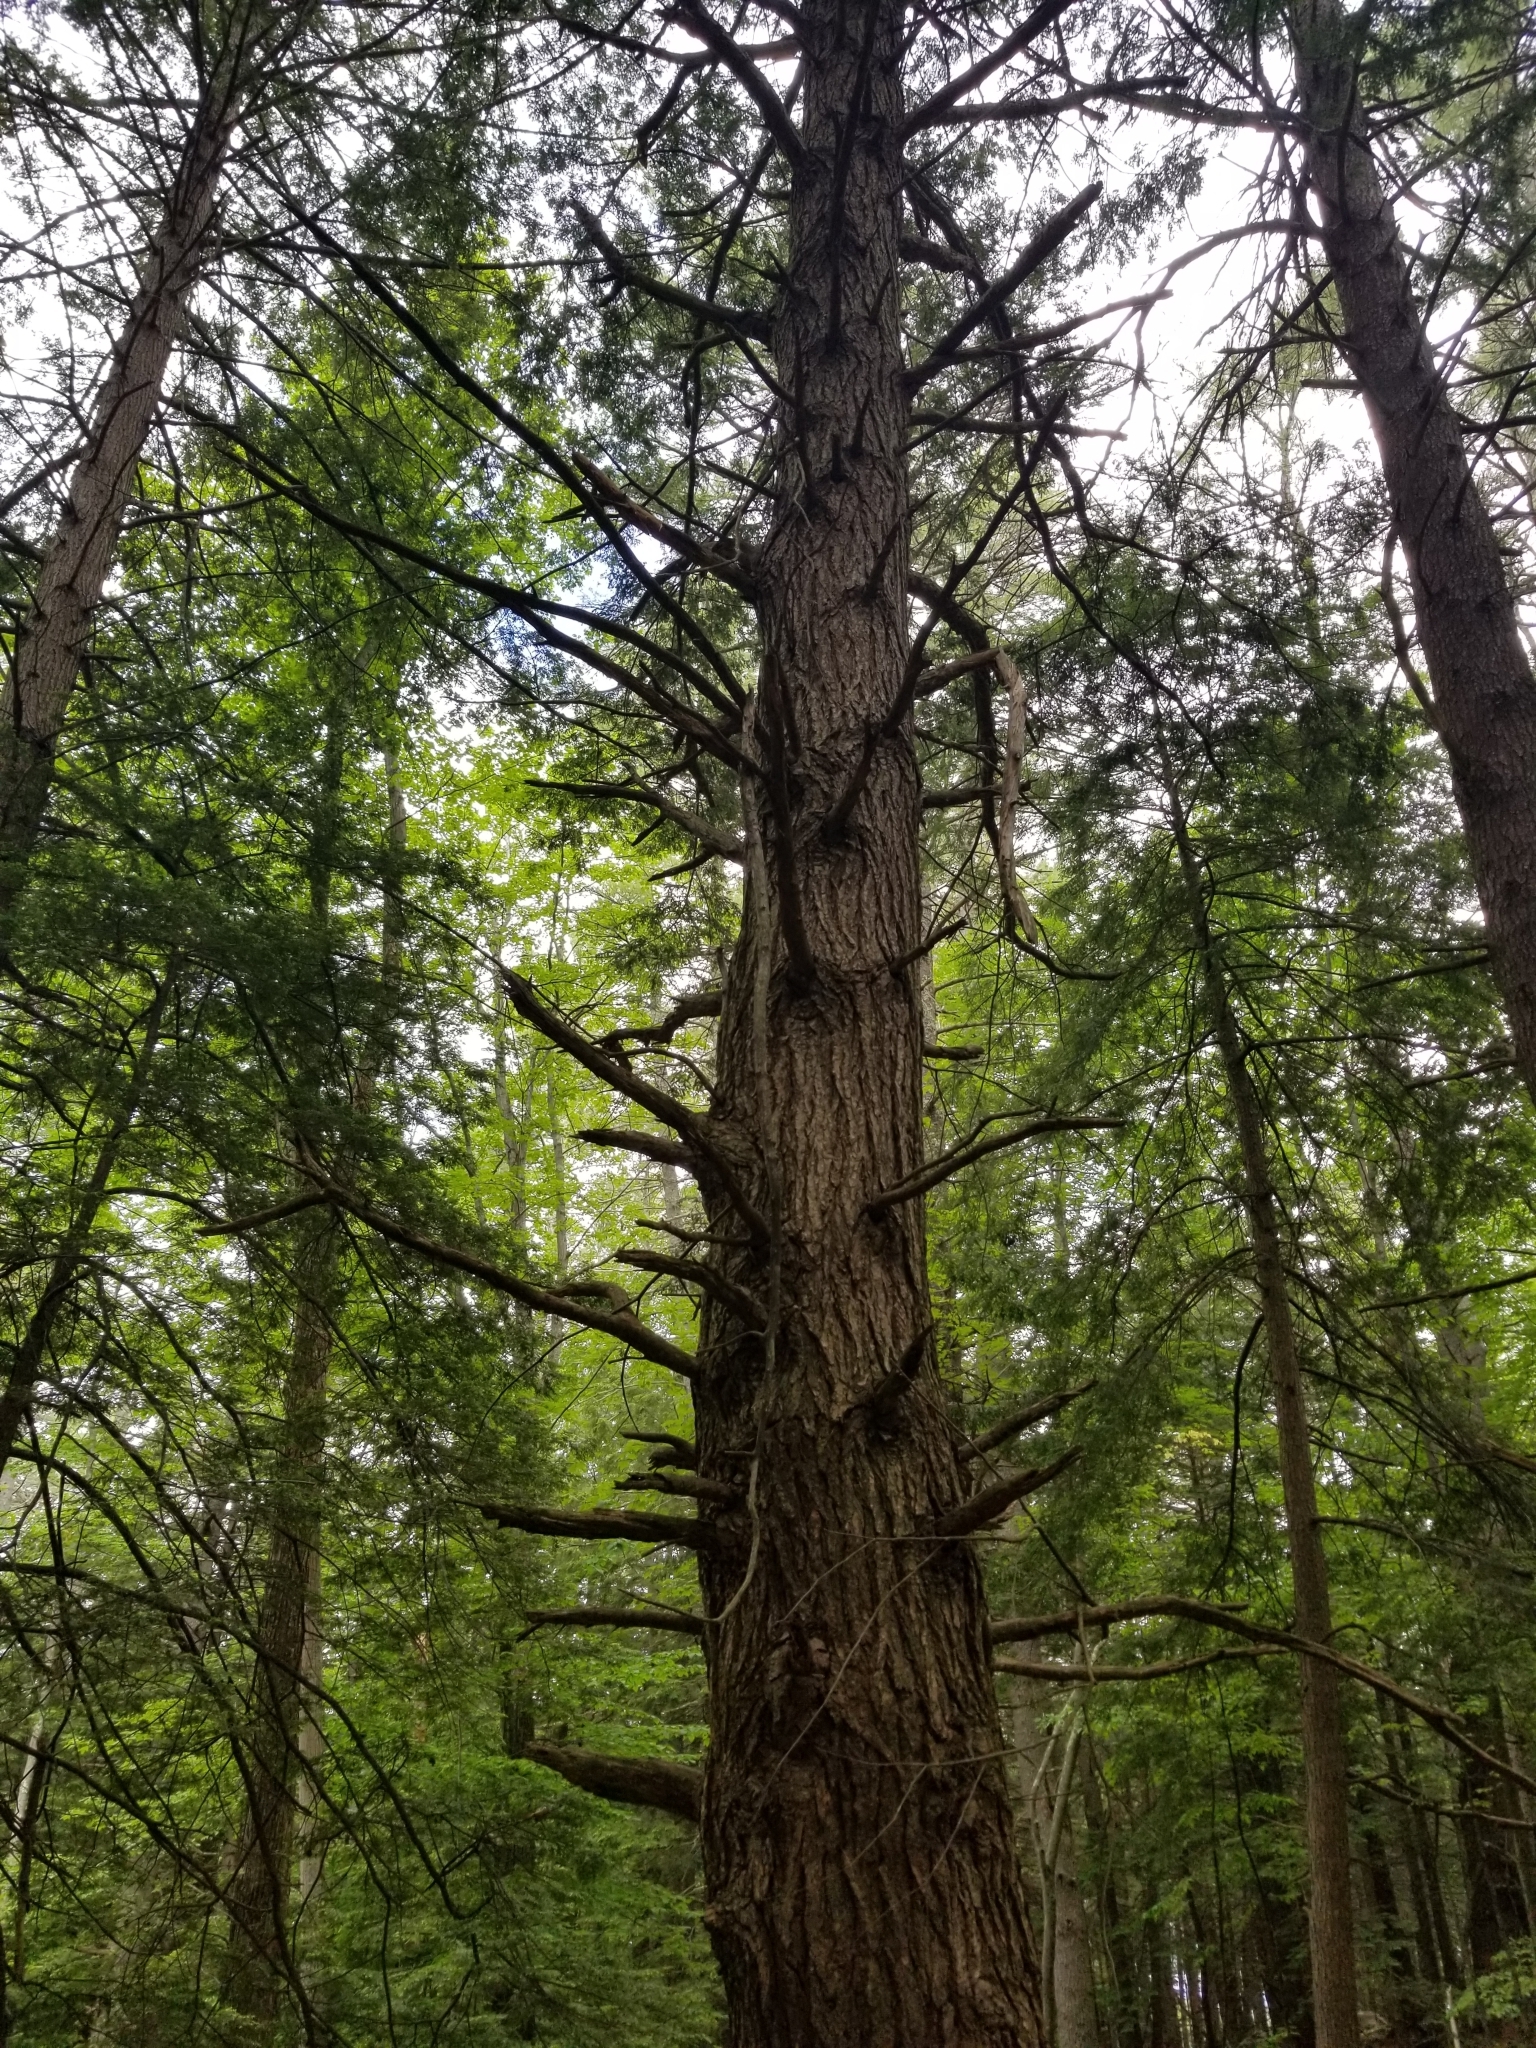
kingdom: Plantae
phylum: Tracheophyta
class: Pinopsida
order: Pinales
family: Pinaceae
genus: Tsuga
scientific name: Tsuga canadensis
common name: Eastern hemlock
